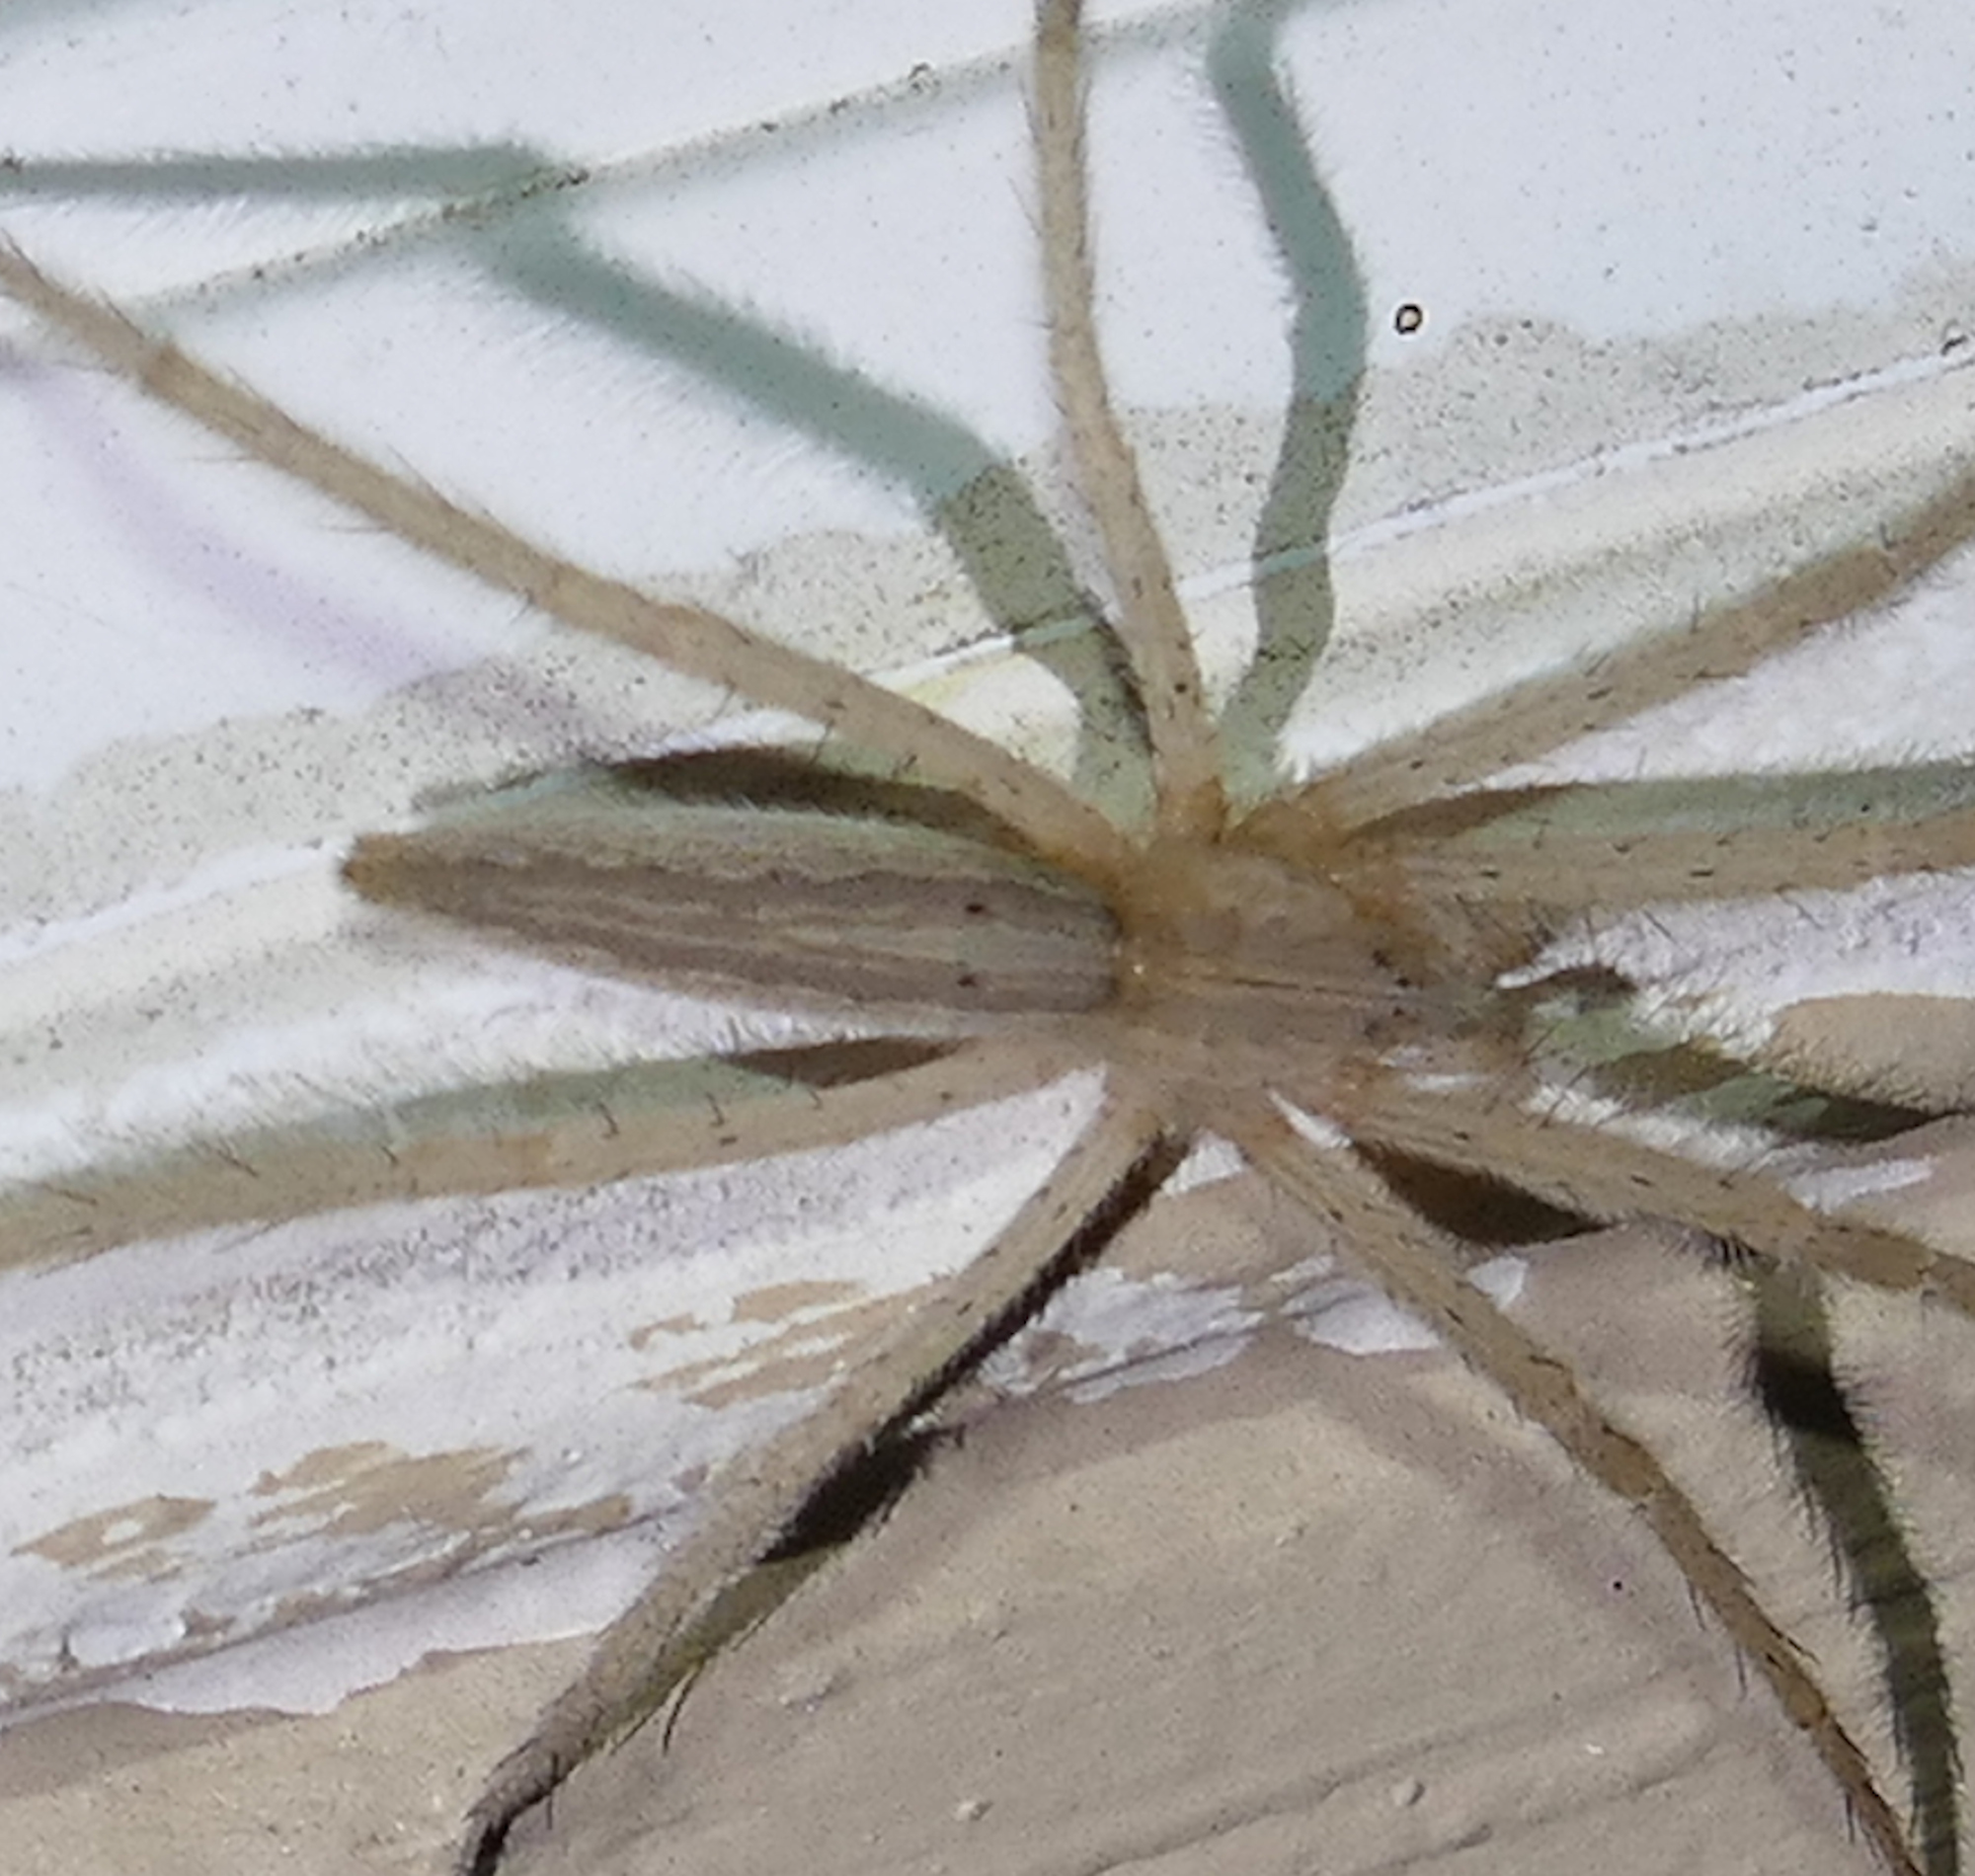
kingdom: Animalia
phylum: Arthropoda
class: Arachnida
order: Araneae
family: Pisauridae
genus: Pisaurina
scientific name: Pisaurina undulata
